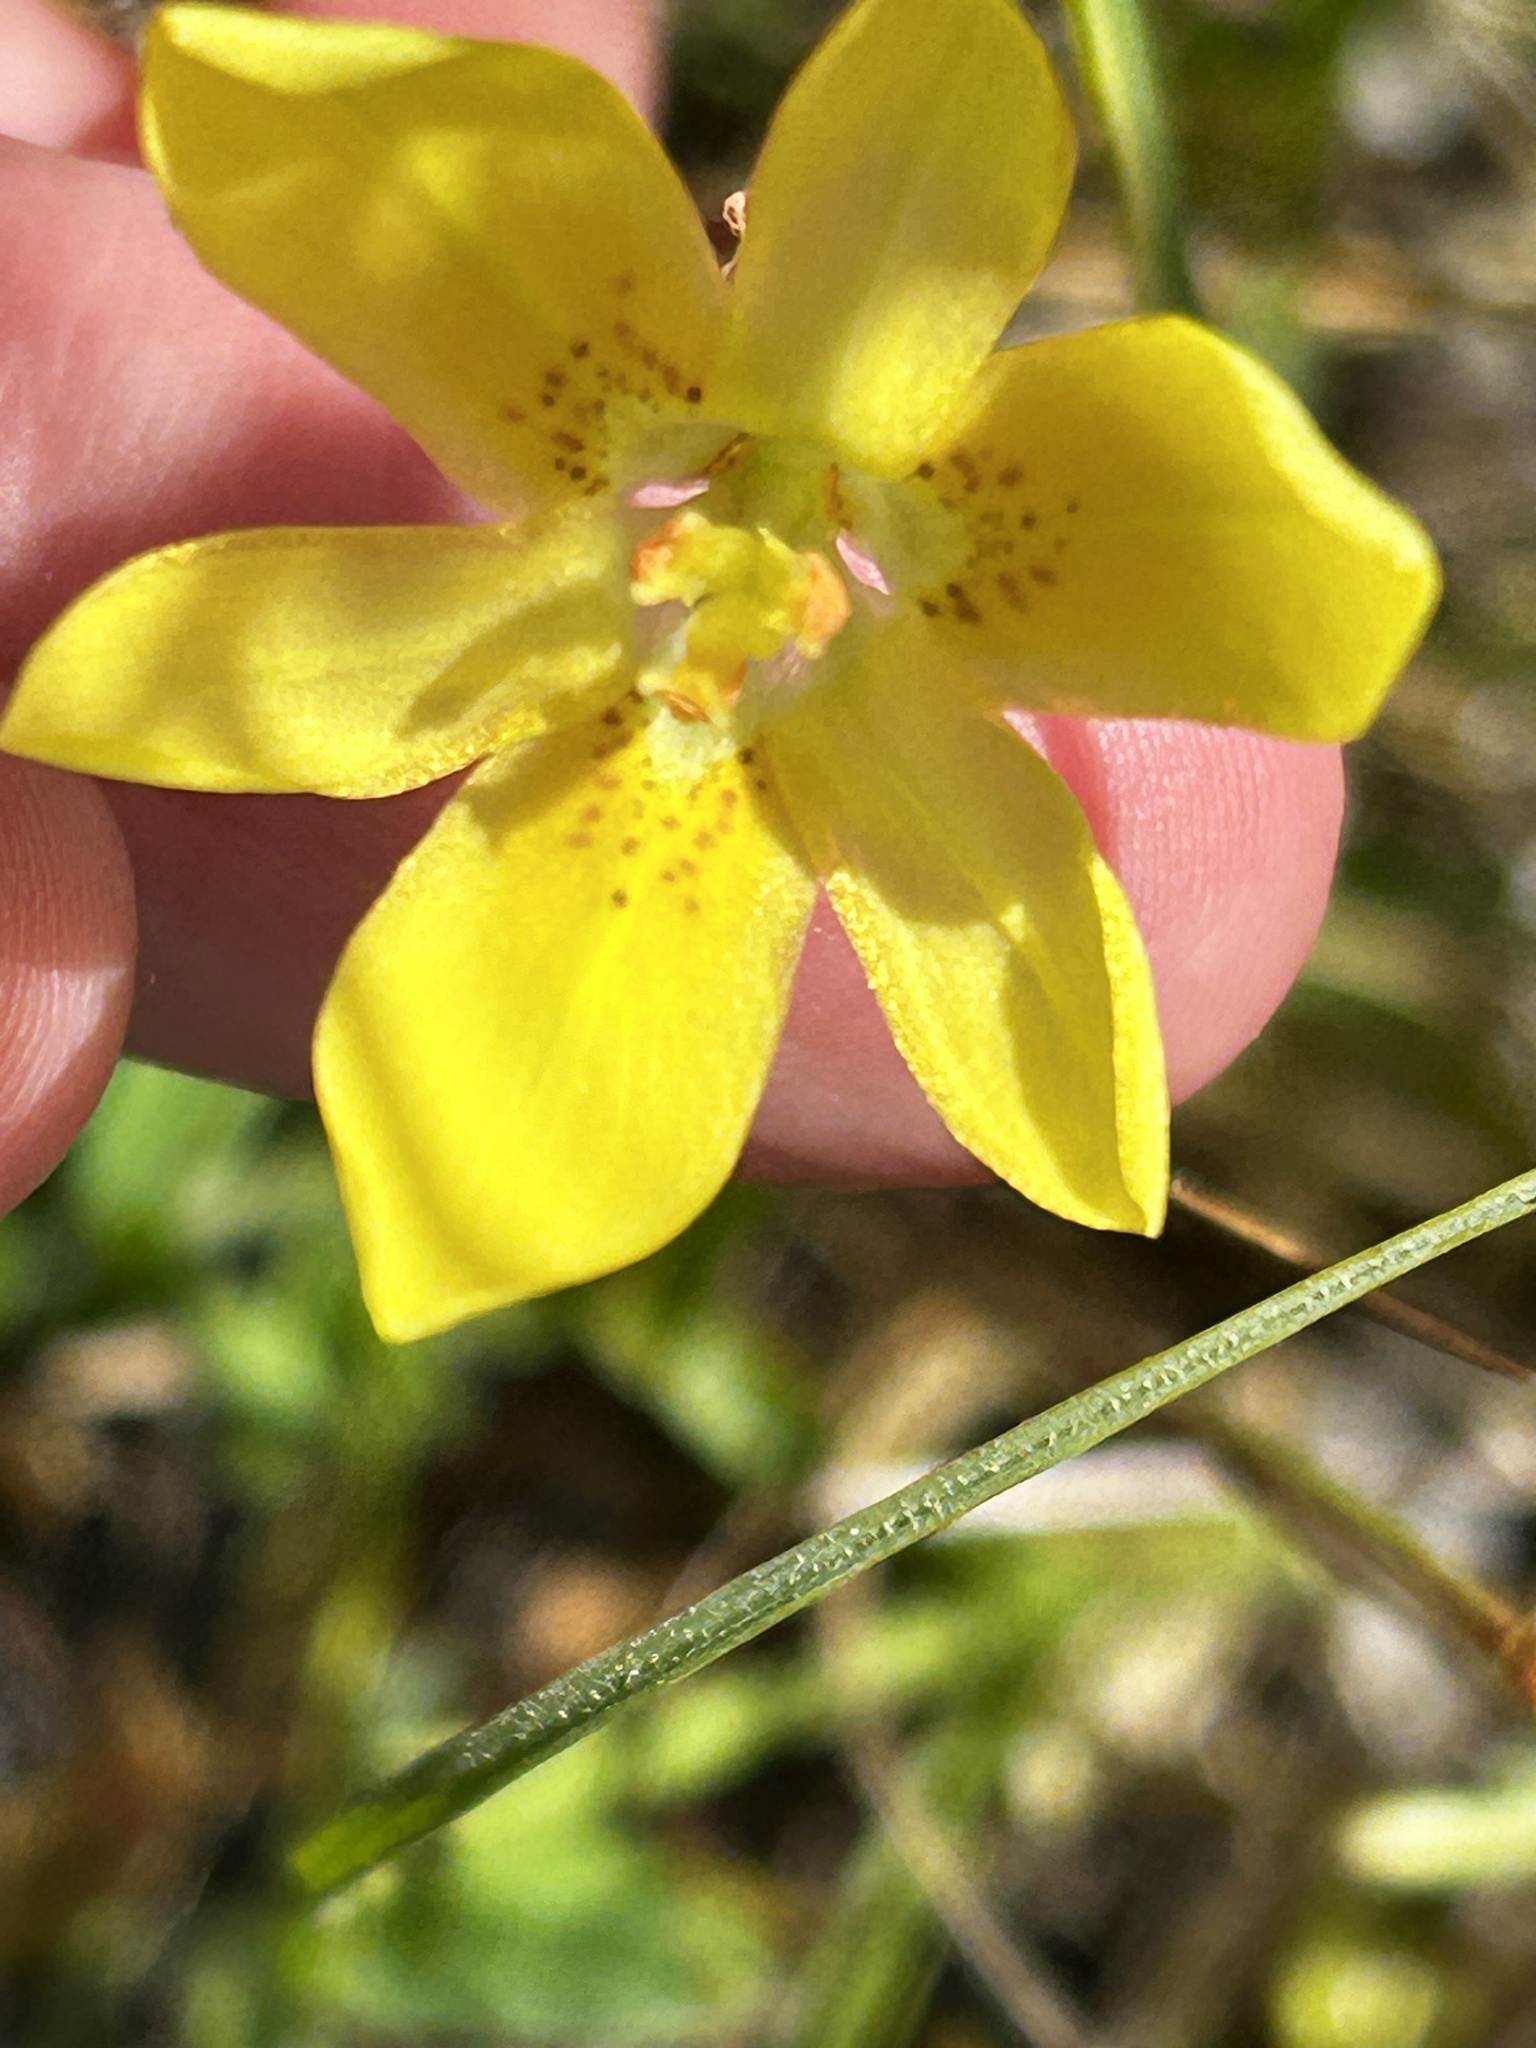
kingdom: Plantae
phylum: Tracheophyta
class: Liliopsida
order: Asparagales
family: Iridaceae
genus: Moraea
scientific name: Moraea elsiae
